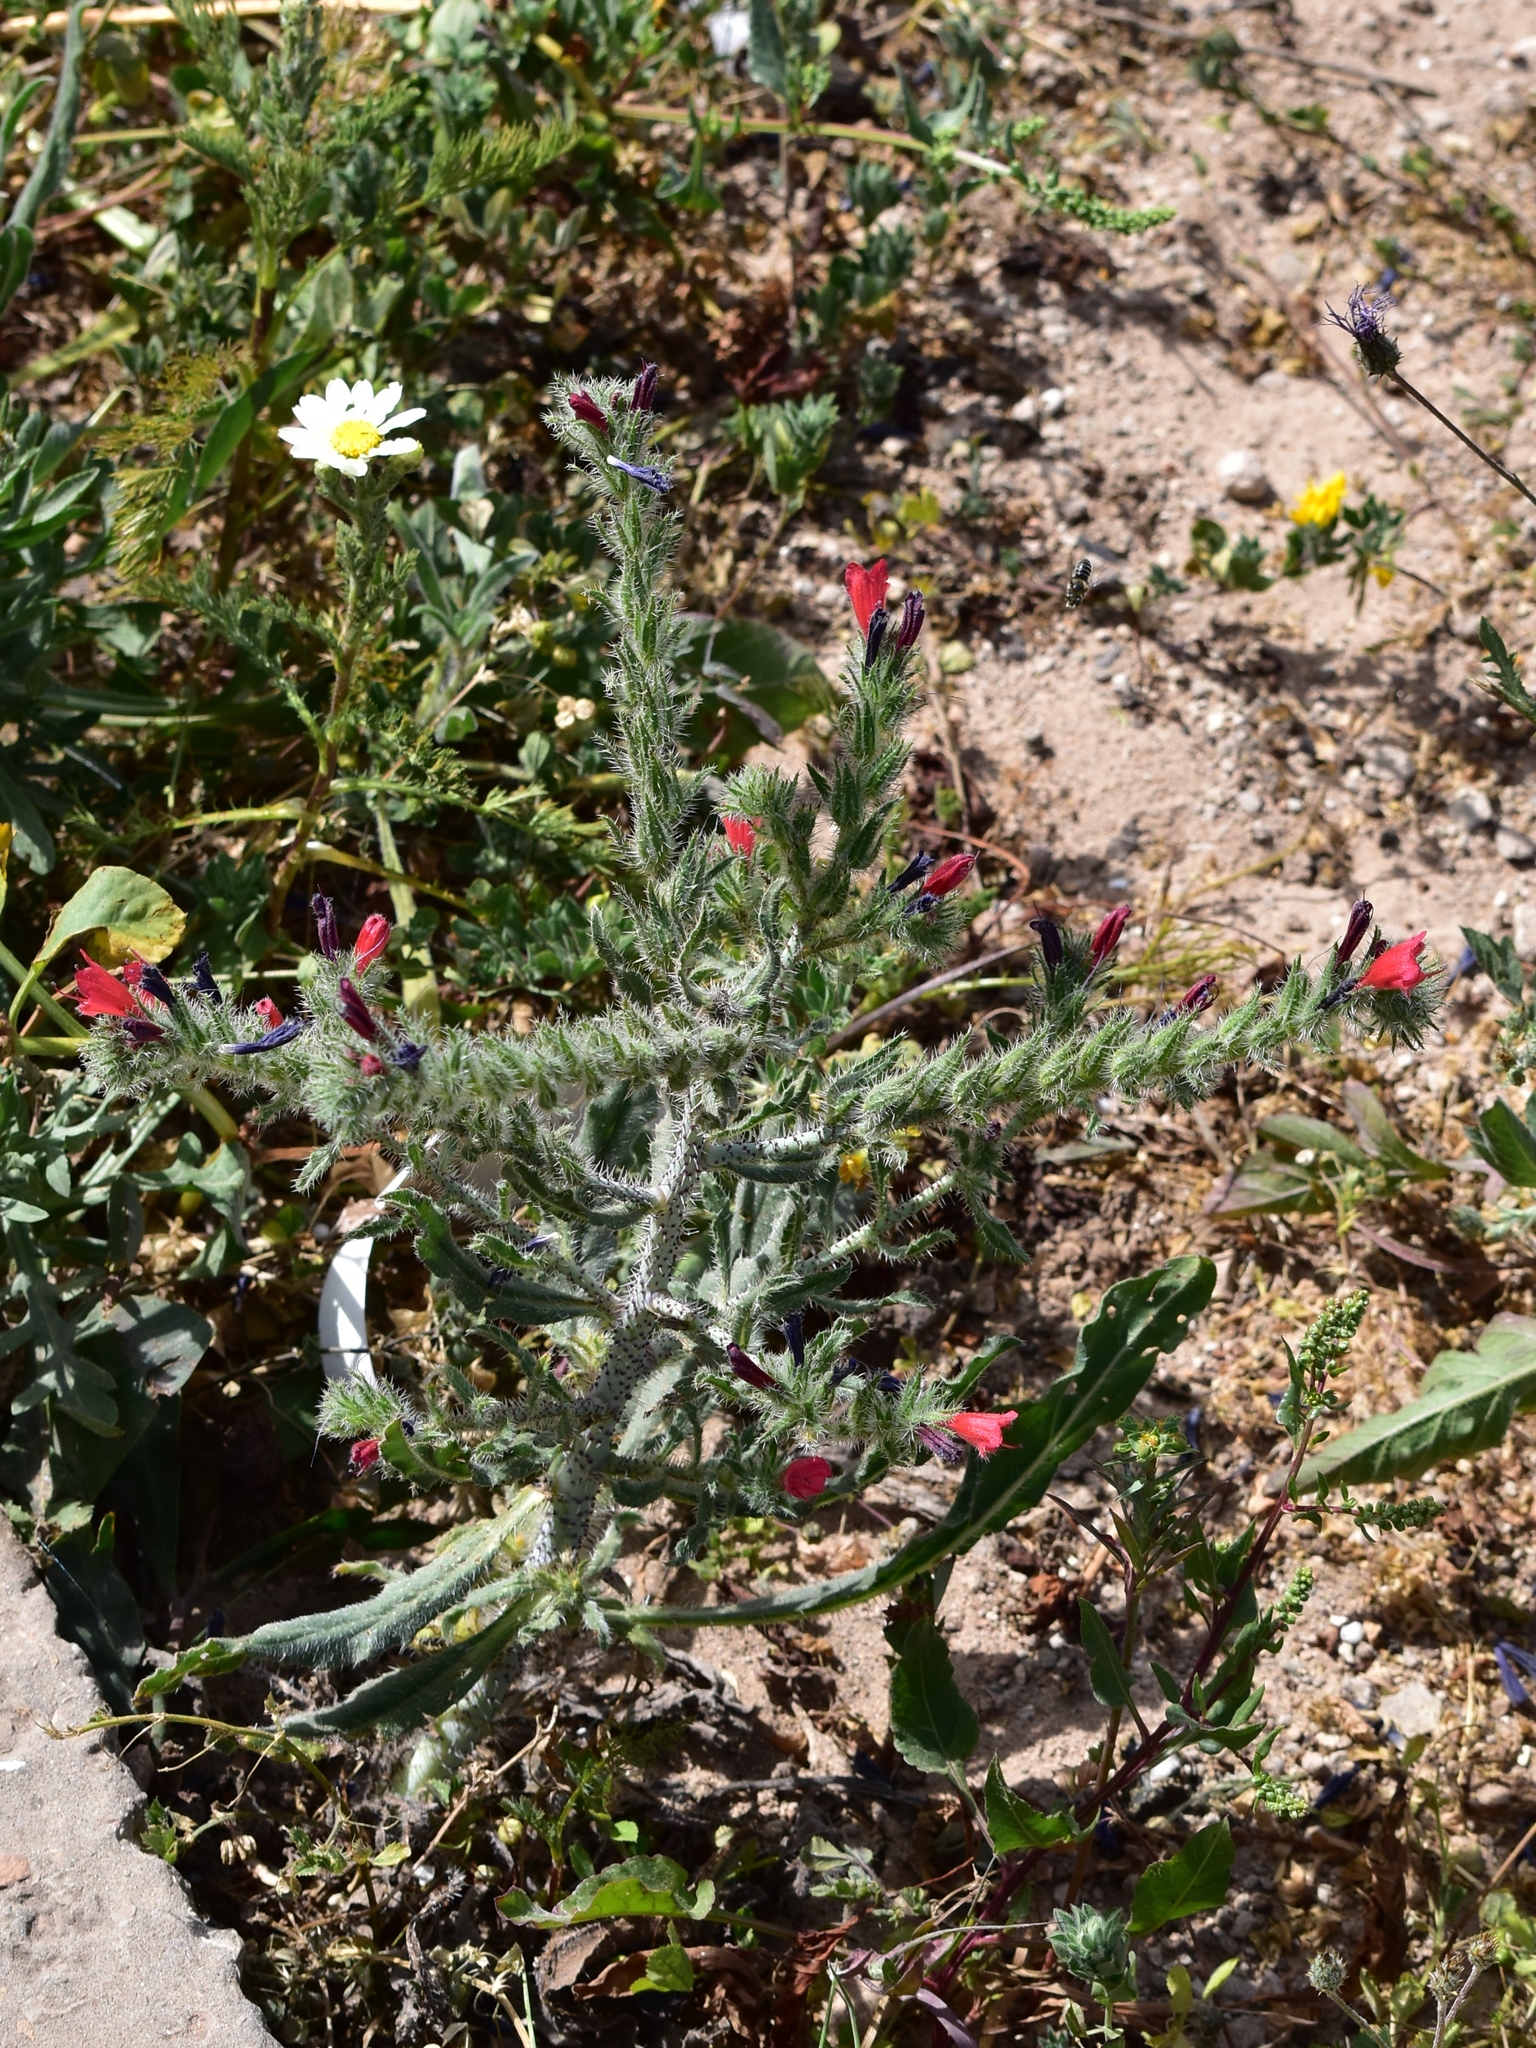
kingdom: Plantae
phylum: Tracheophyta
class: Magnoliopsida
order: Boraginales
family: Boraginaceae
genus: Echium
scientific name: Echium horridum
